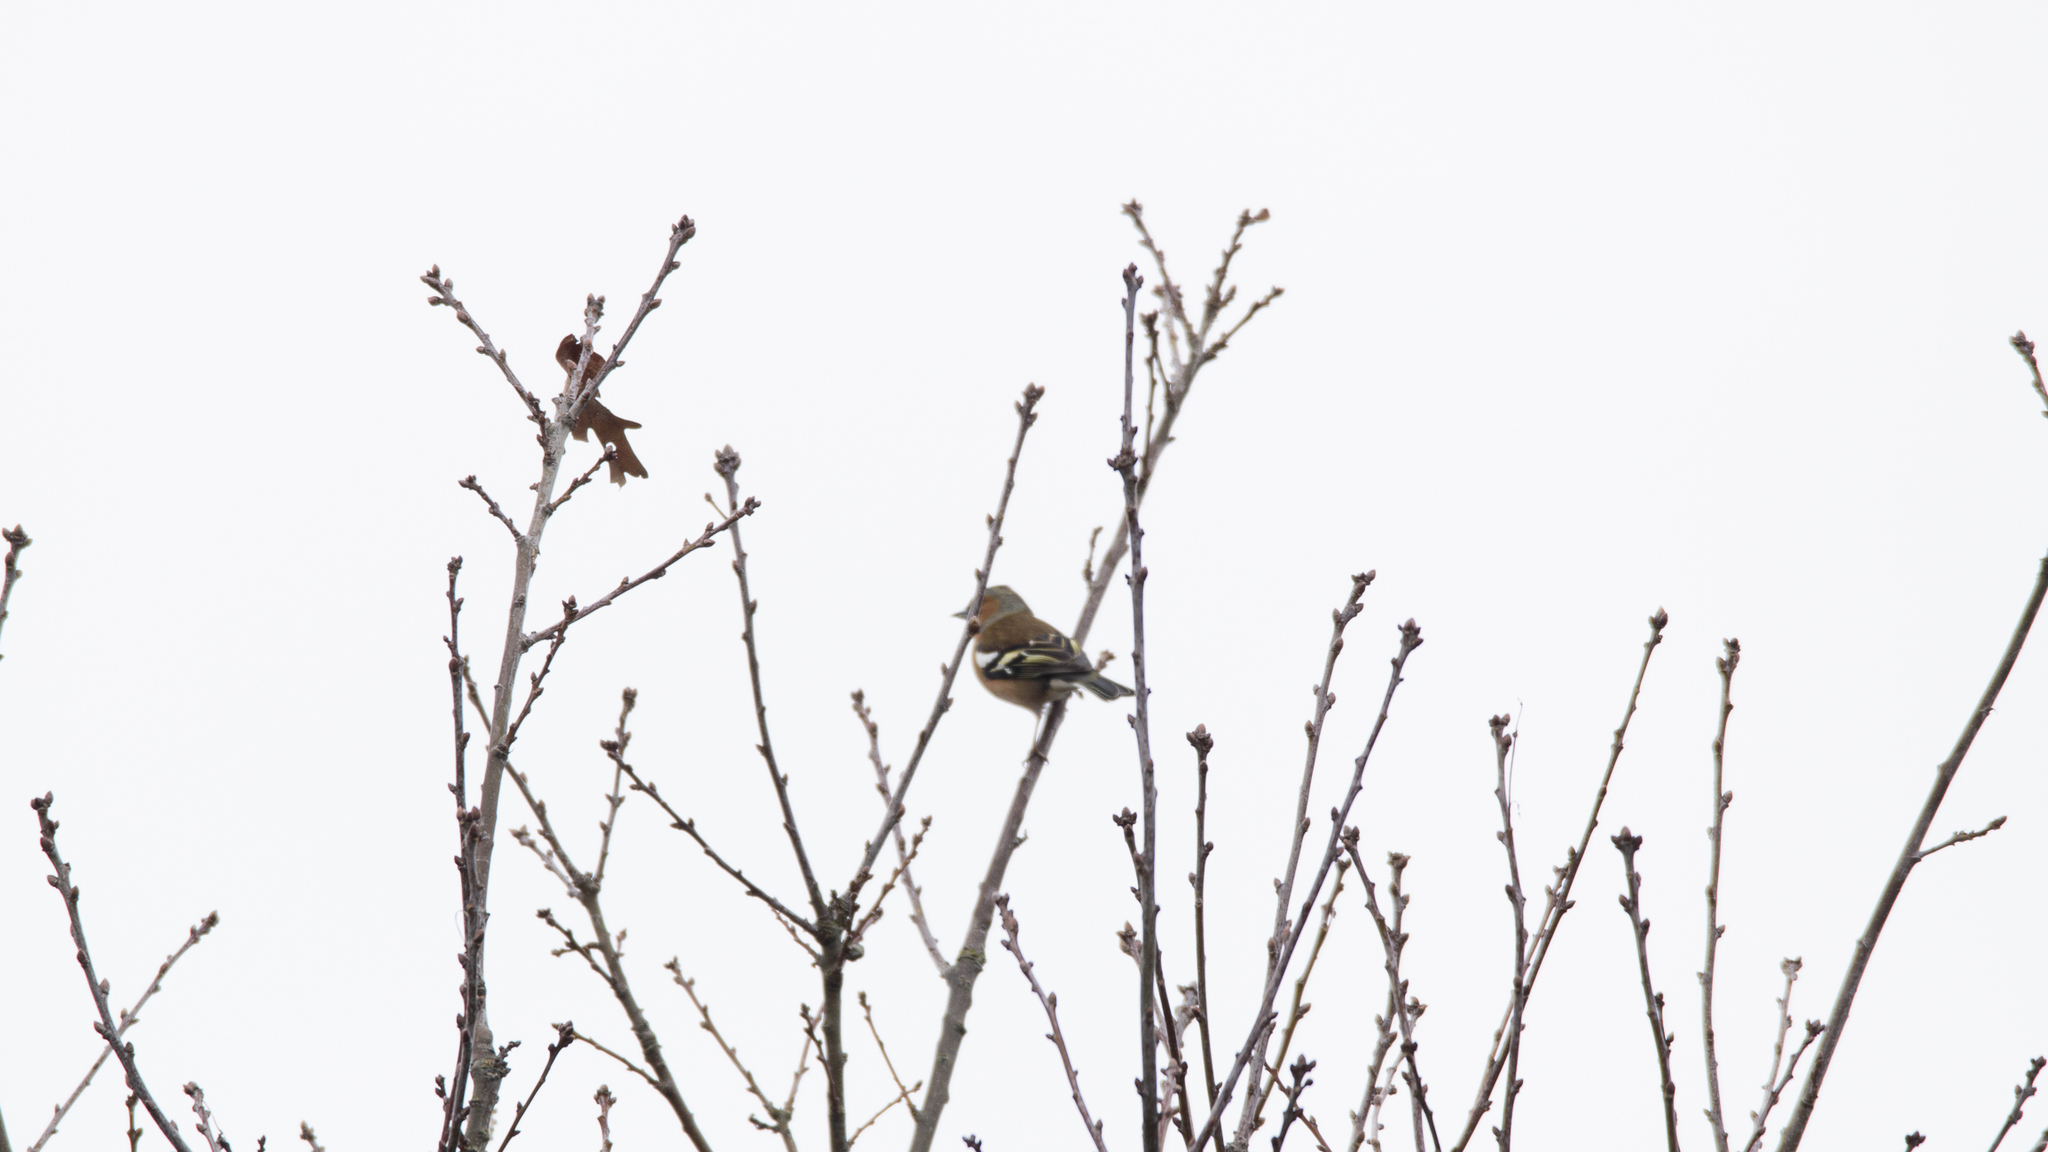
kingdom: Animalia
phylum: Chordata
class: Aves
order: Passeriformes
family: Fringillidae
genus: Fringilla
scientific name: Fringilla coelebs
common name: Common chaffinch
